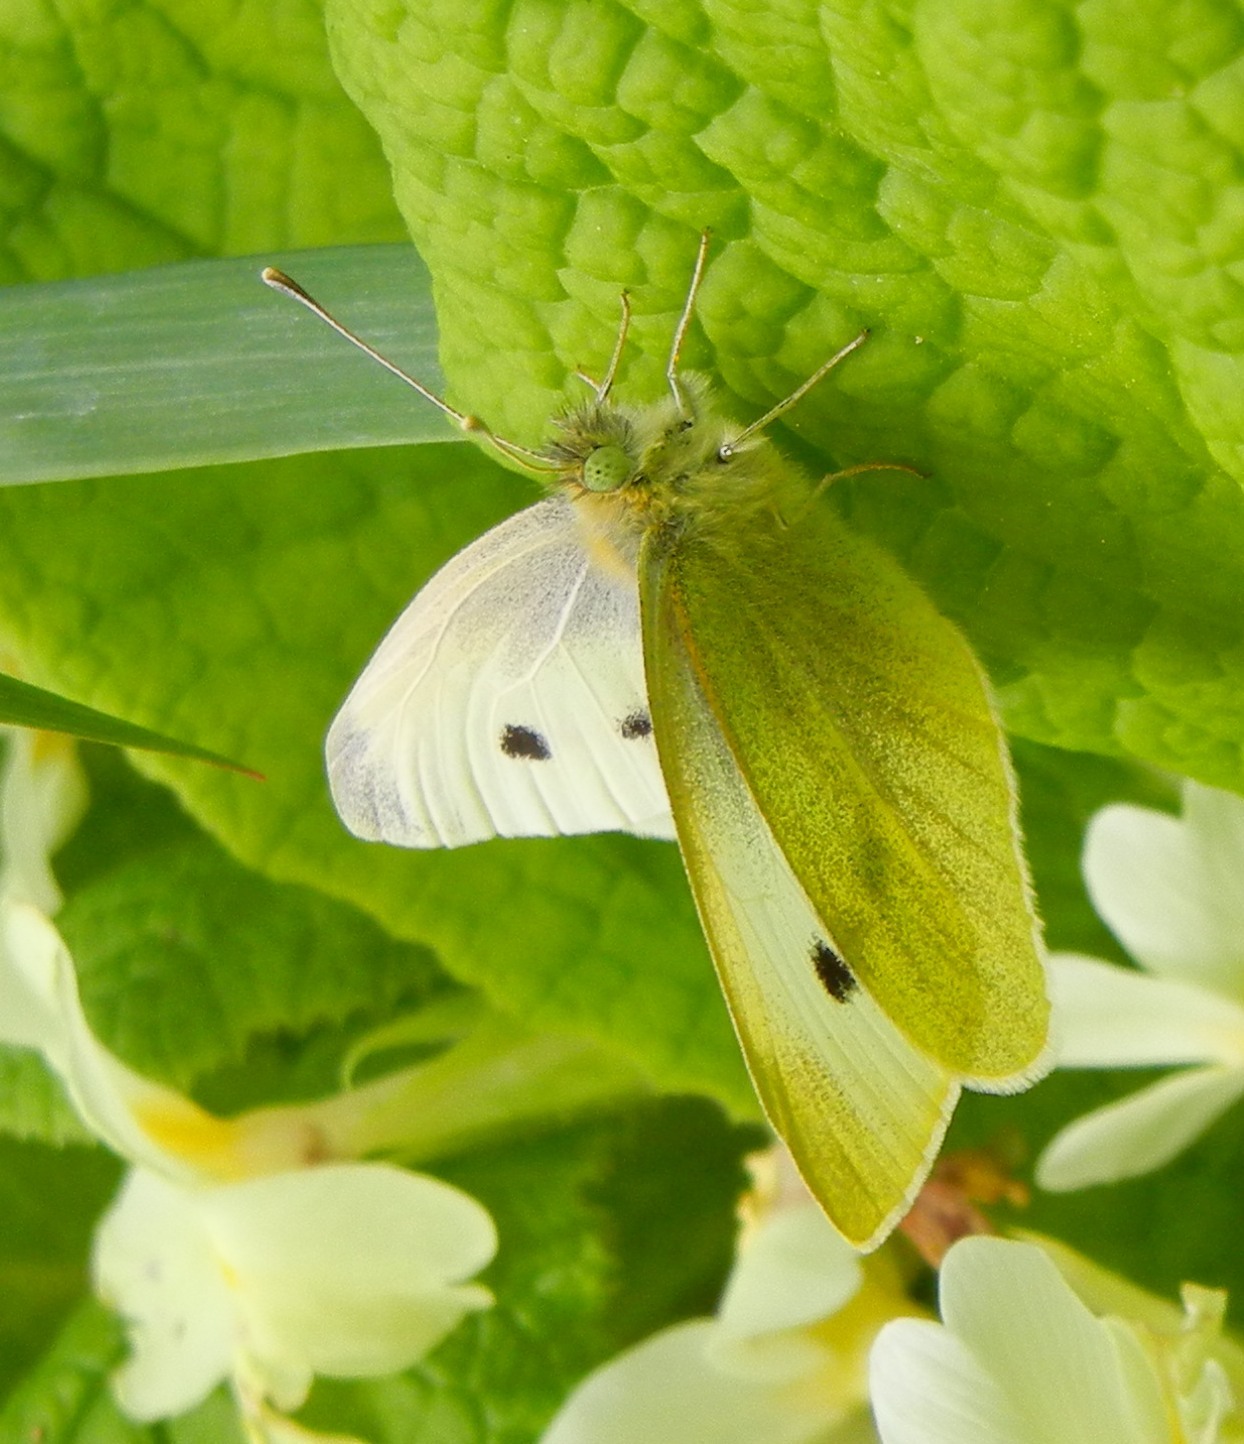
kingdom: Animalia
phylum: Arthropoda
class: Insecta
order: Lepidoptera
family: Pieridae
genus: Pieris
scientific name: Pieris rapae
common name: Small white
